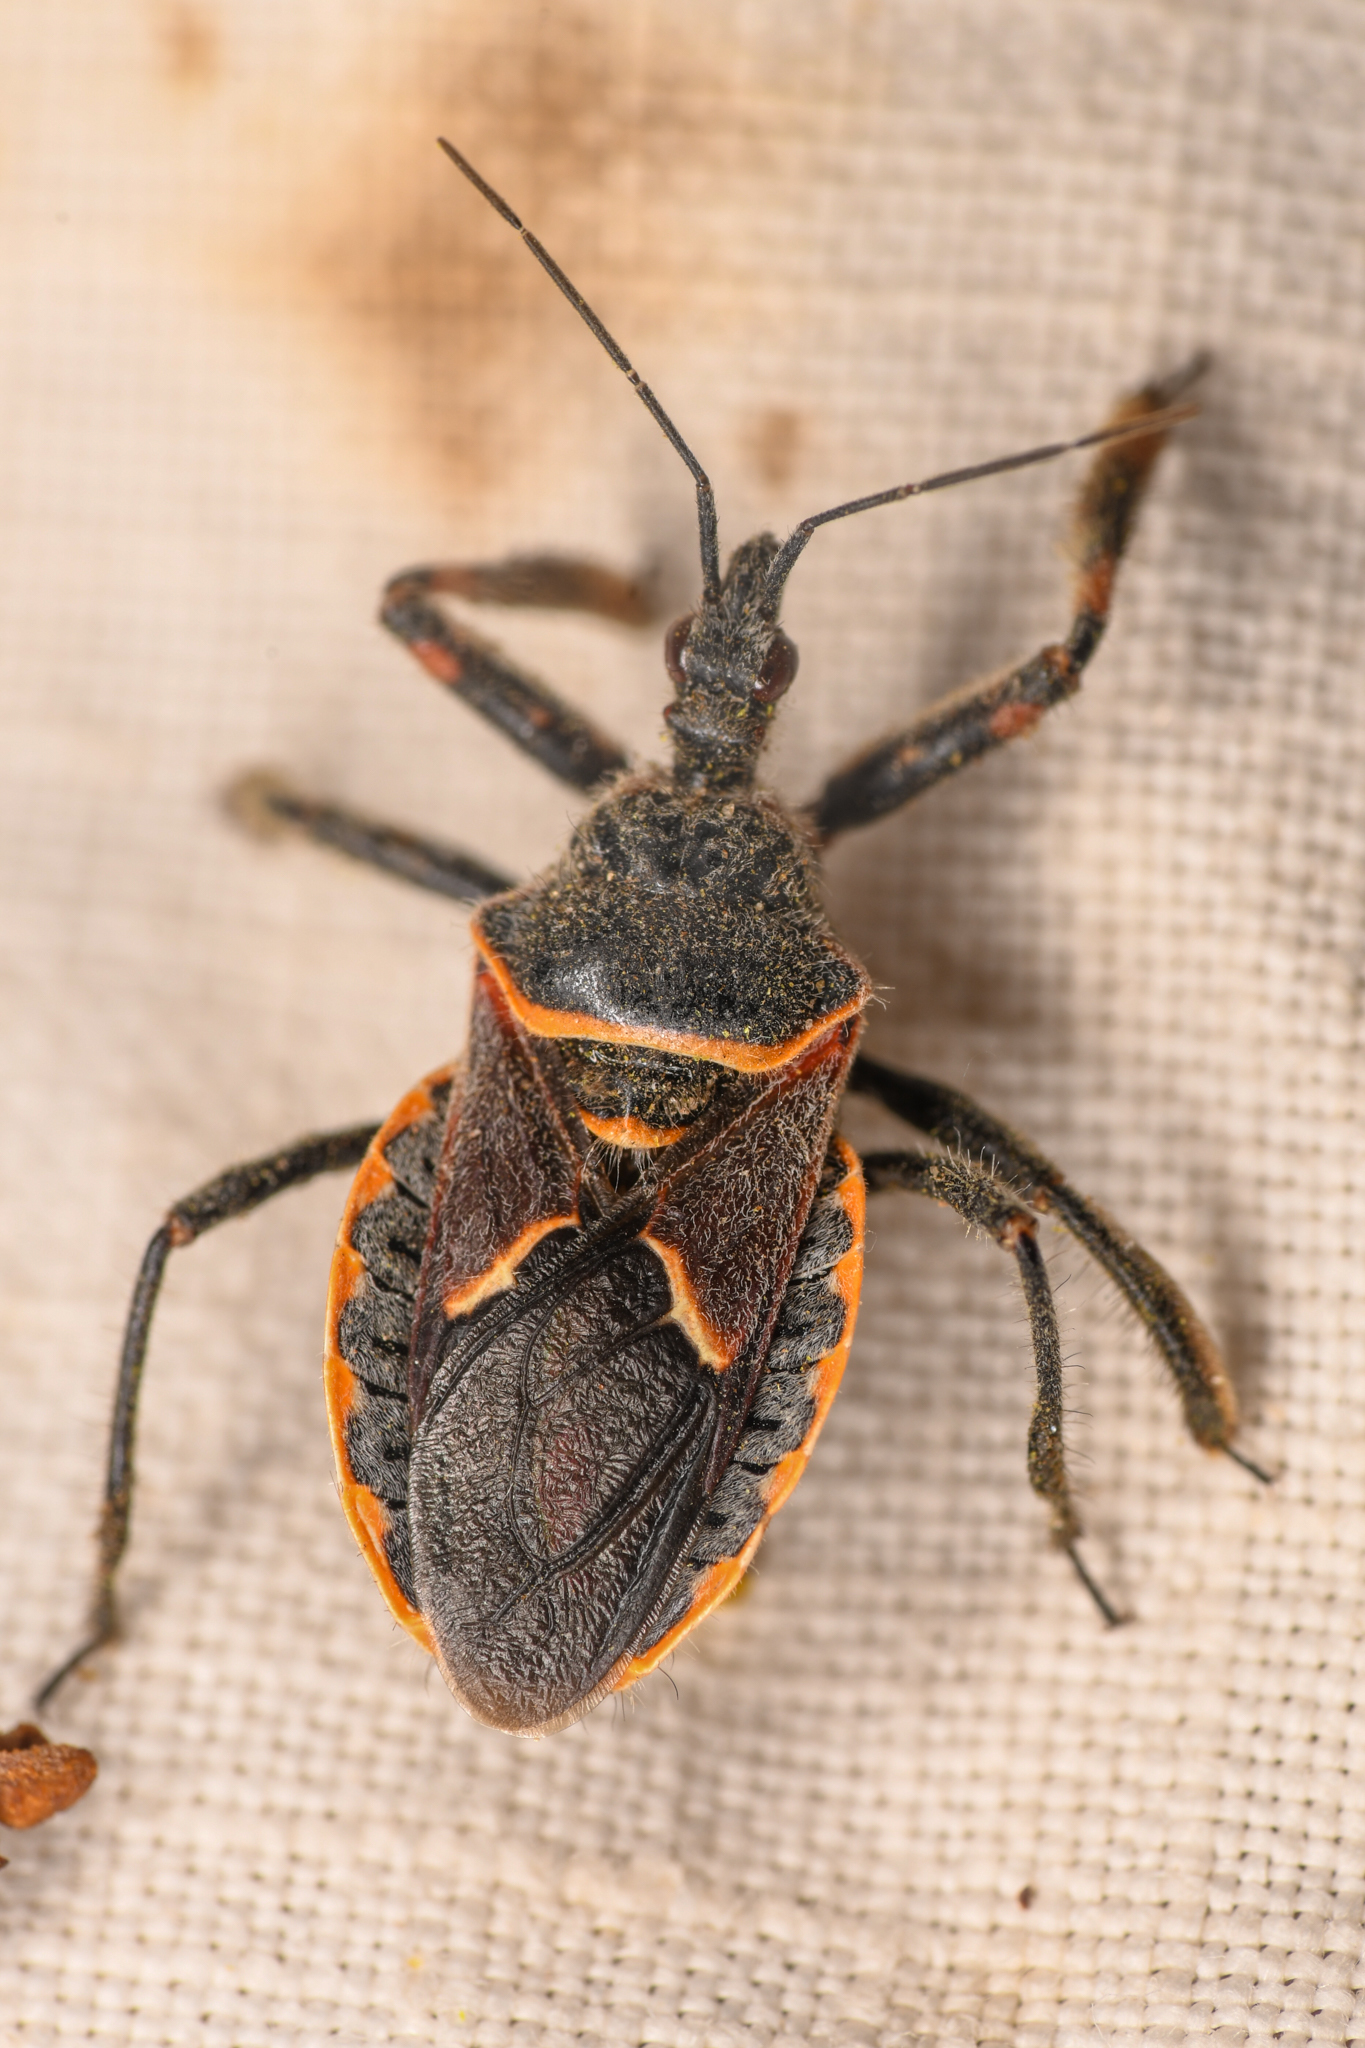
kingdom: Animalia
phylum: Arthropoda
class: Insecta
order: Hemiptera
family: Reduviidae
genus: Apiomerus
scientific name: Apiomerus cazieri
